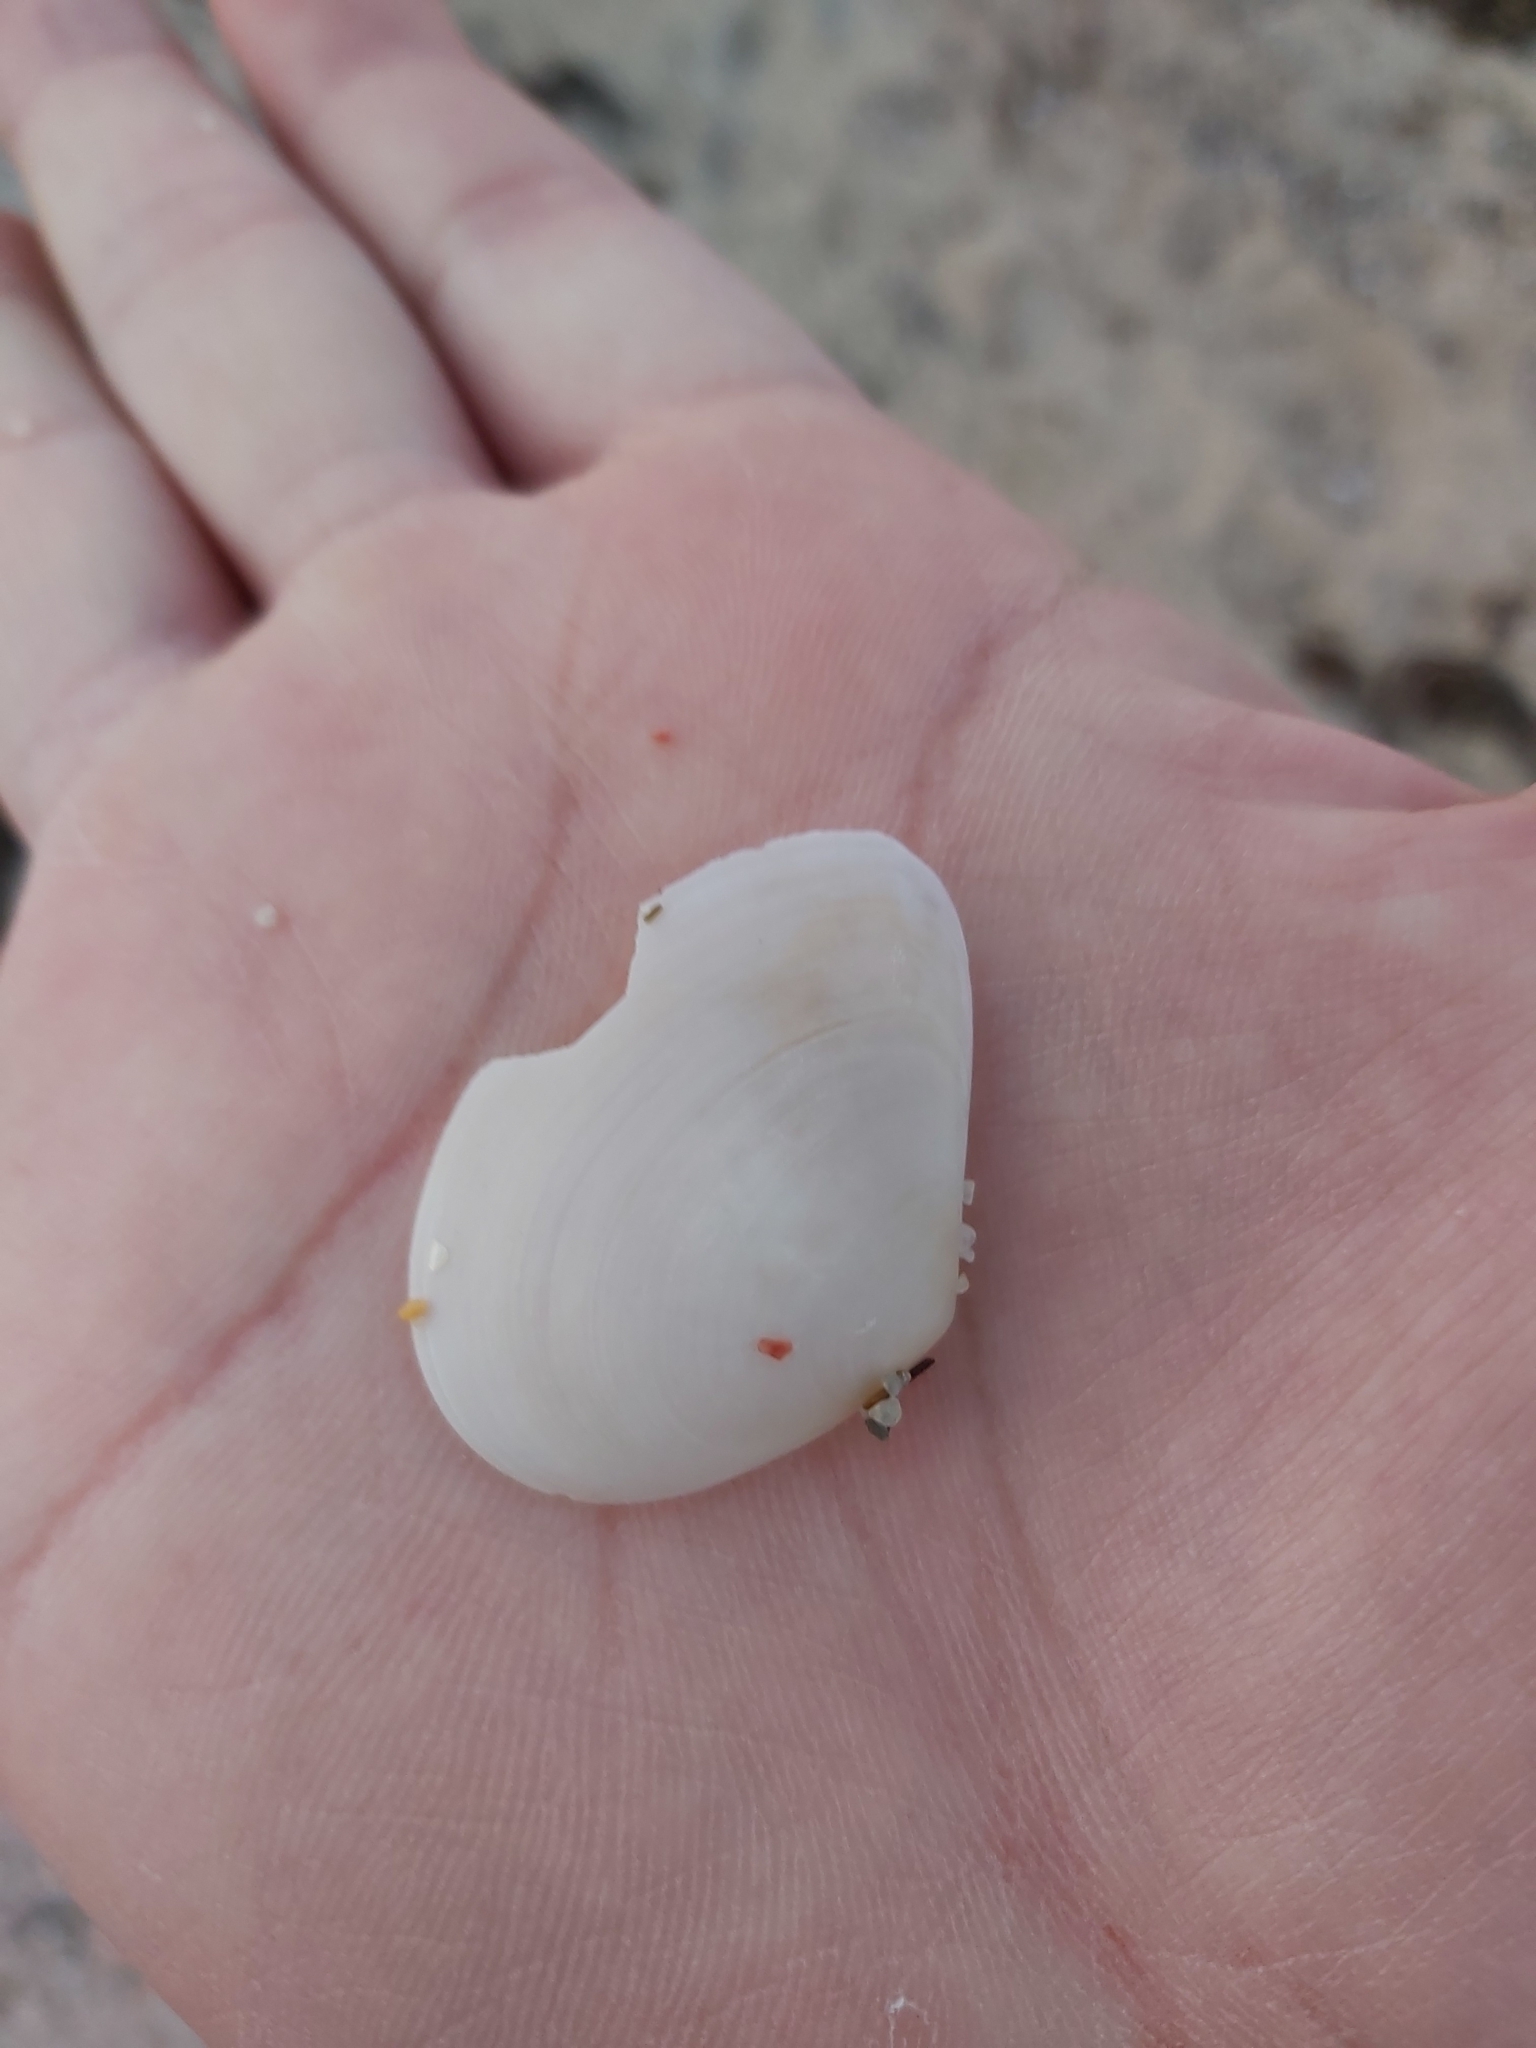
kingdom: Animalia
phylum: Mollusca
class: Bivalvia
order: Cardiida
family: Tellinidae
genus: Macomona
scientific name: Macomona deltoidalis
